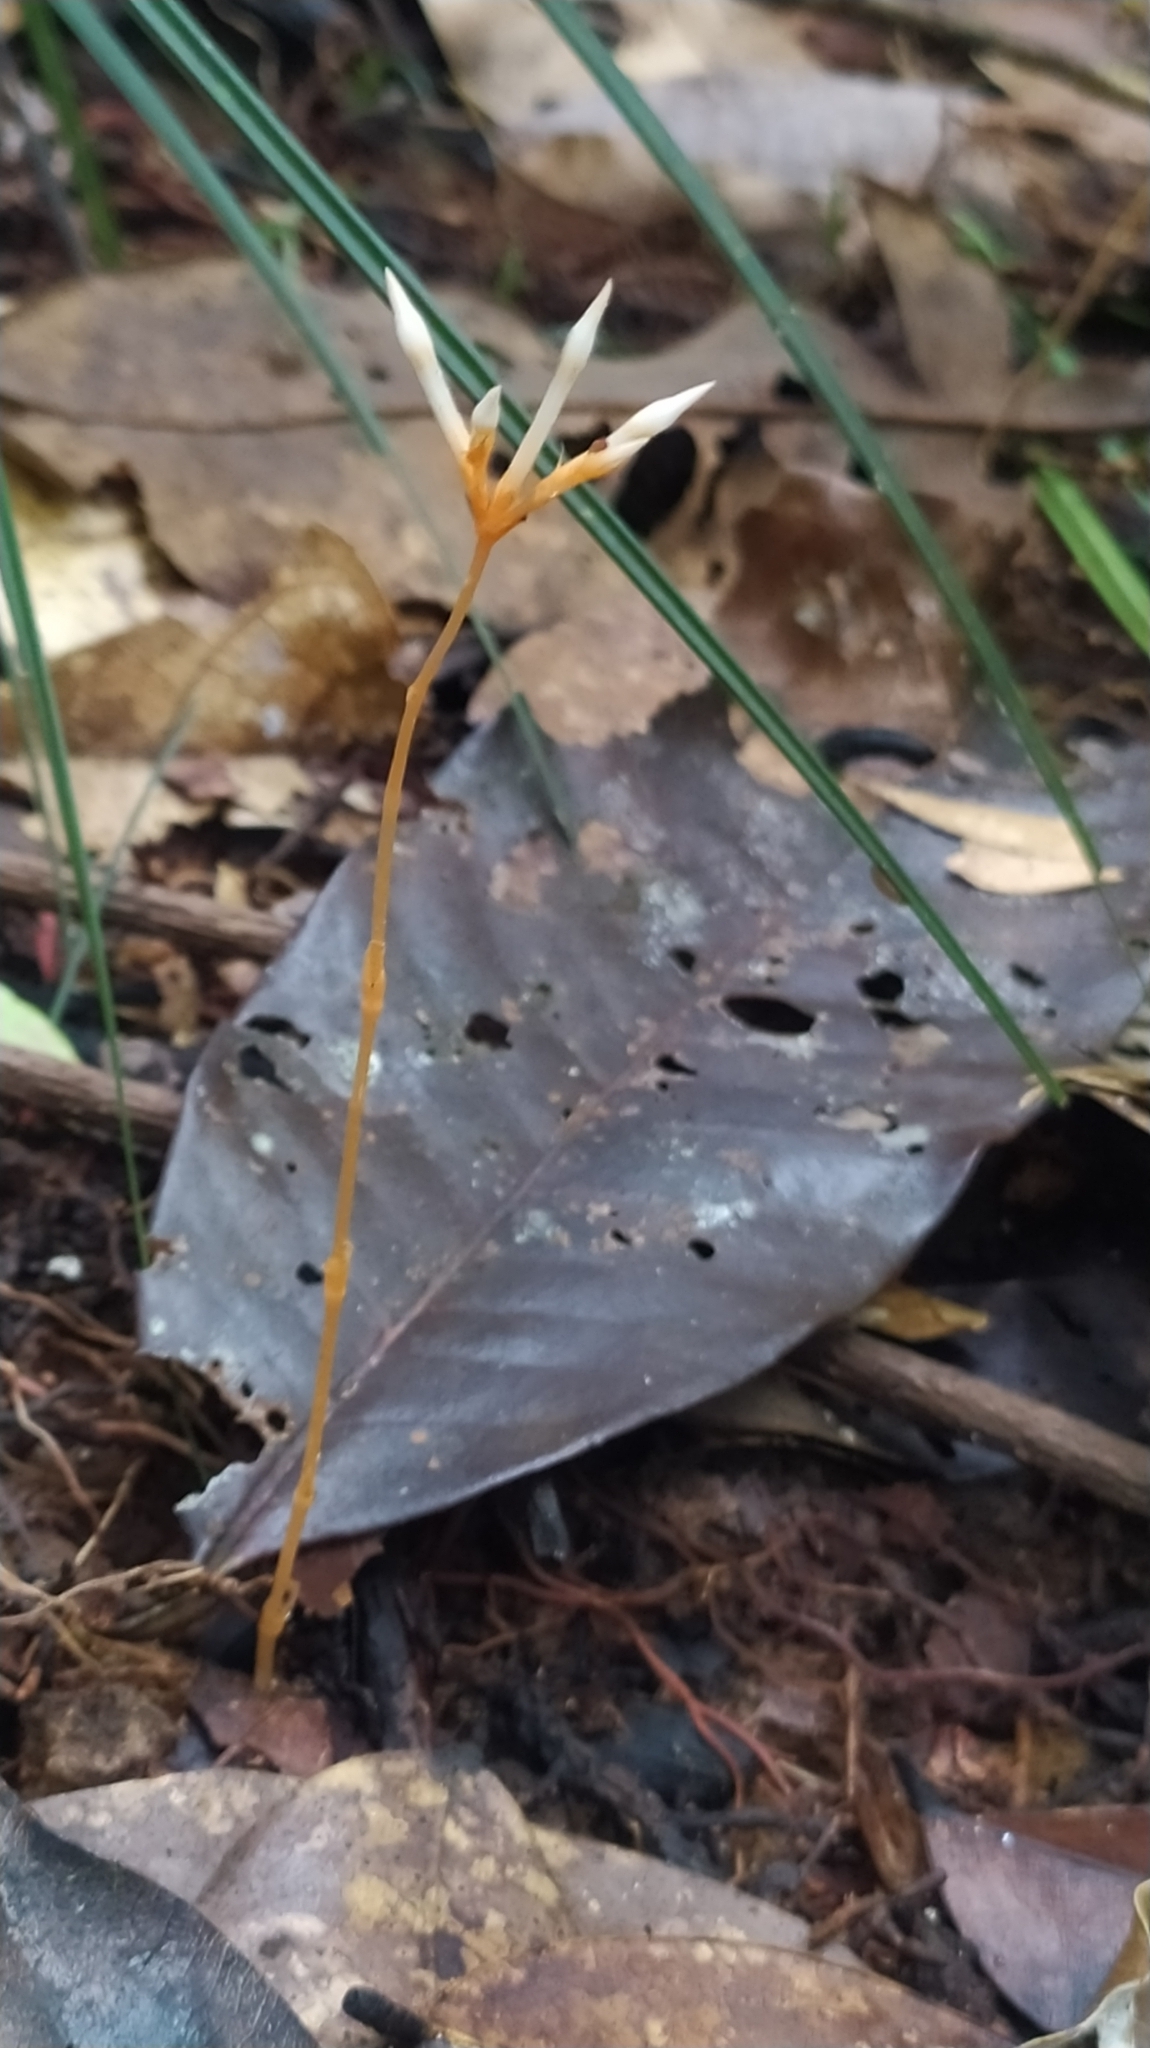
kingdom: Plantae
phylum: Tracheophyta
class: Magnoliopsida
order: Gentianales
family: Gentianaceae
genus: Voyria
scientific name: Voyria corymbosa
